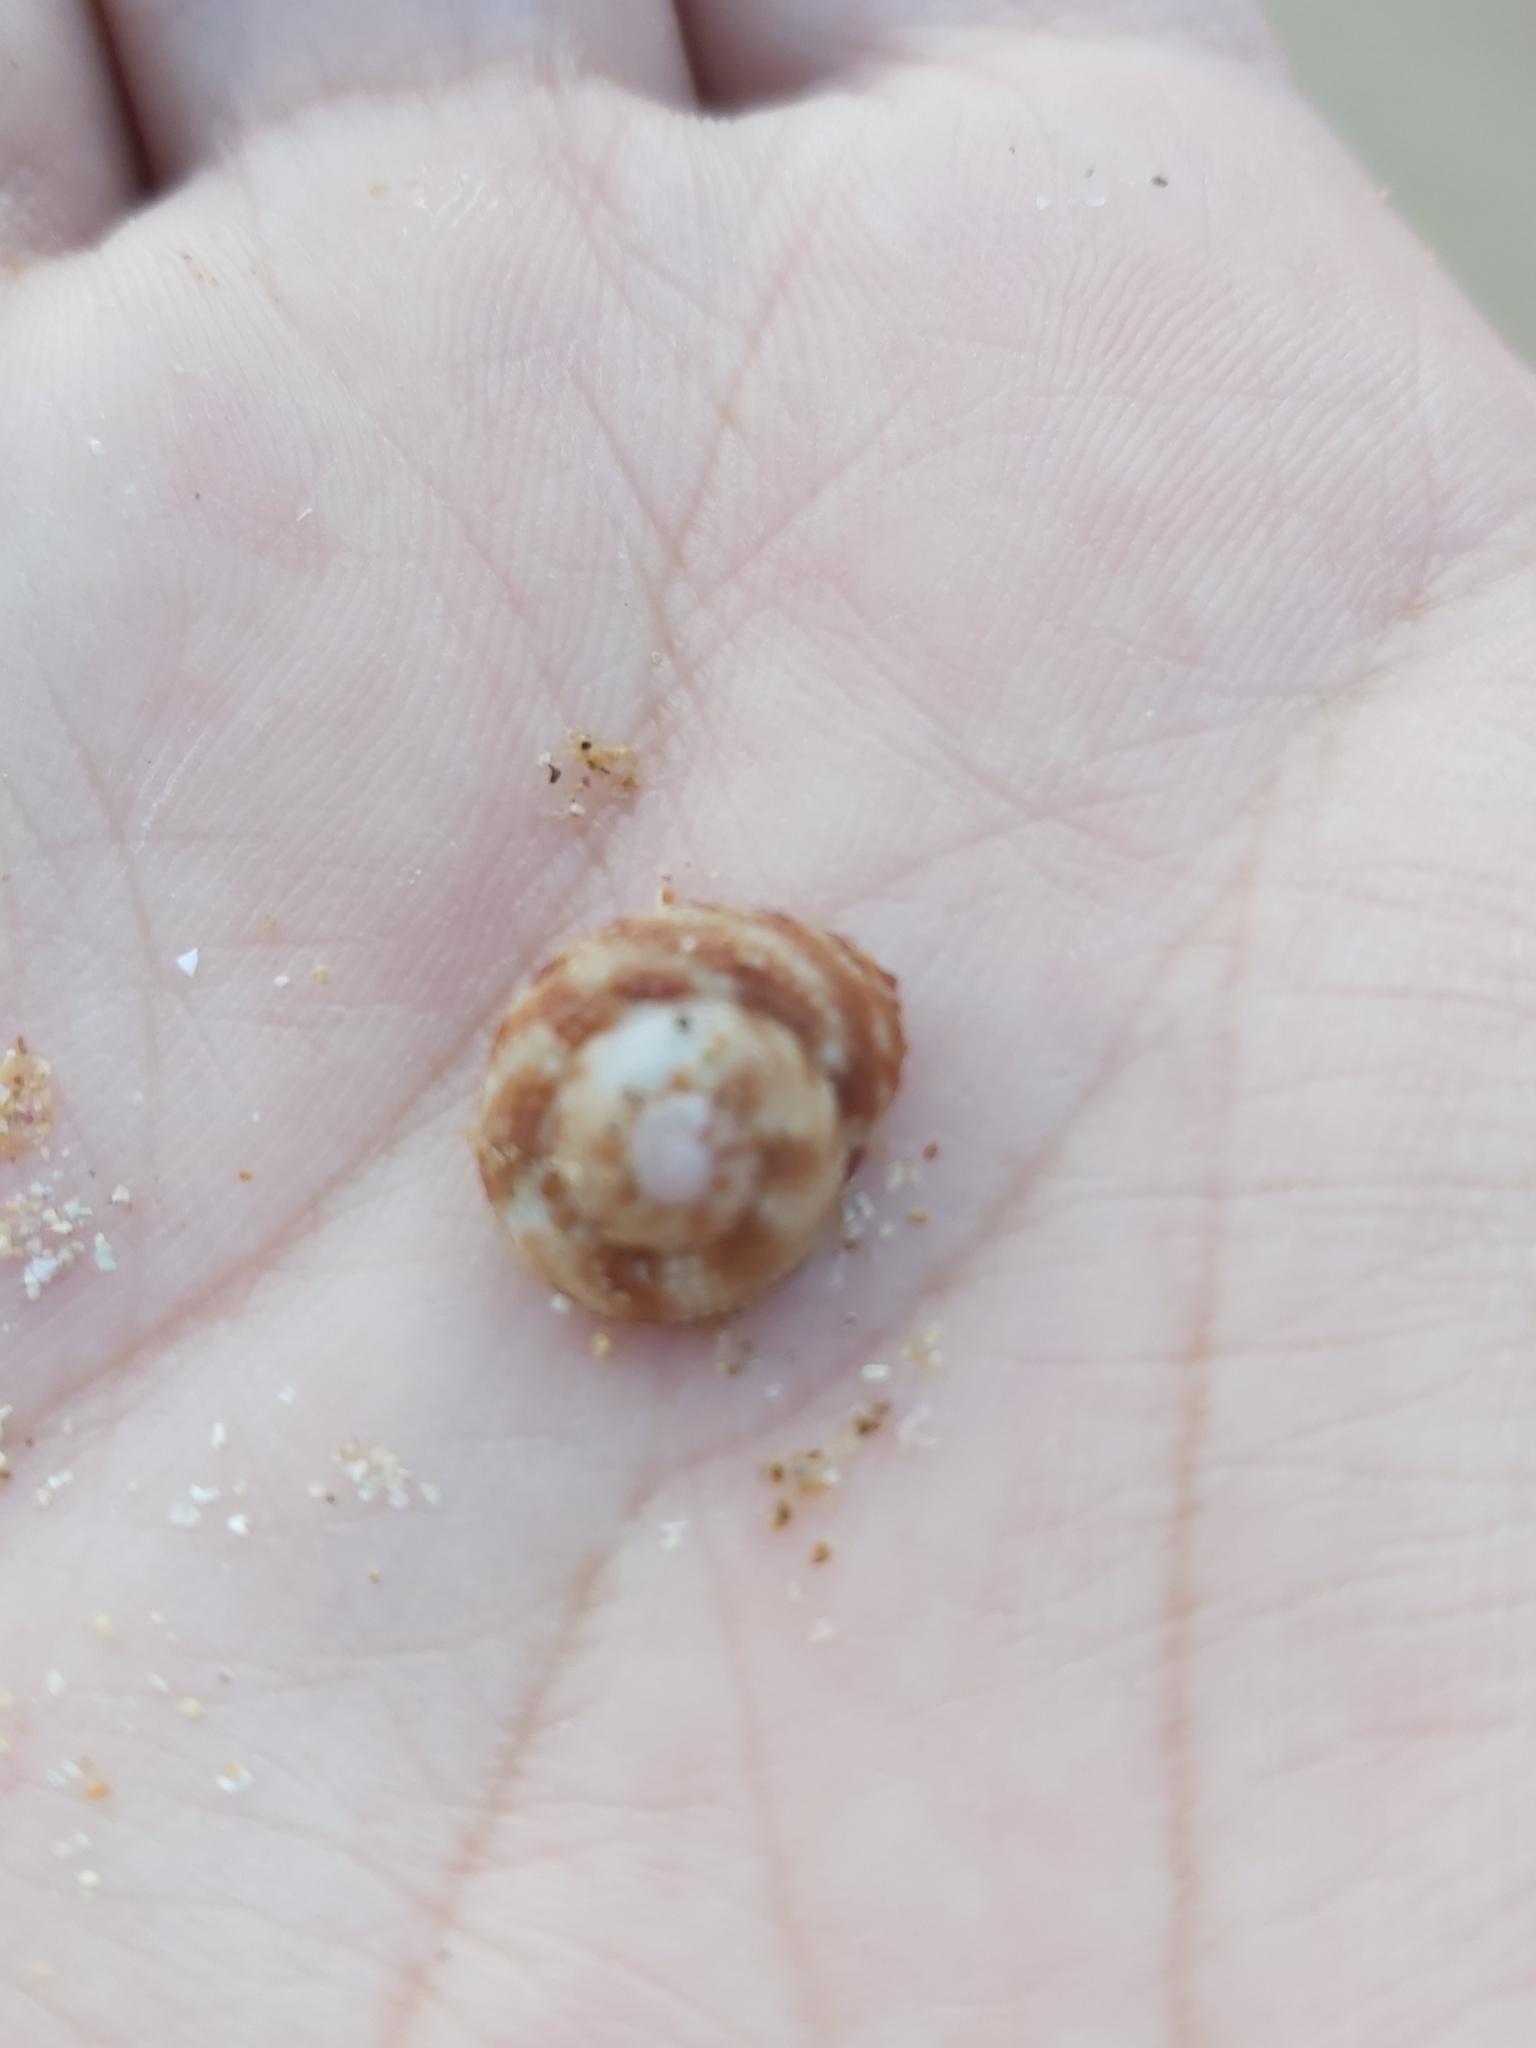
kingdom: Animalia
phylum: Mollusca
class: Gastropoda
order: Trochida
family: Trochidae
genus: Clanculus
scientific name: Clanculus floridus
